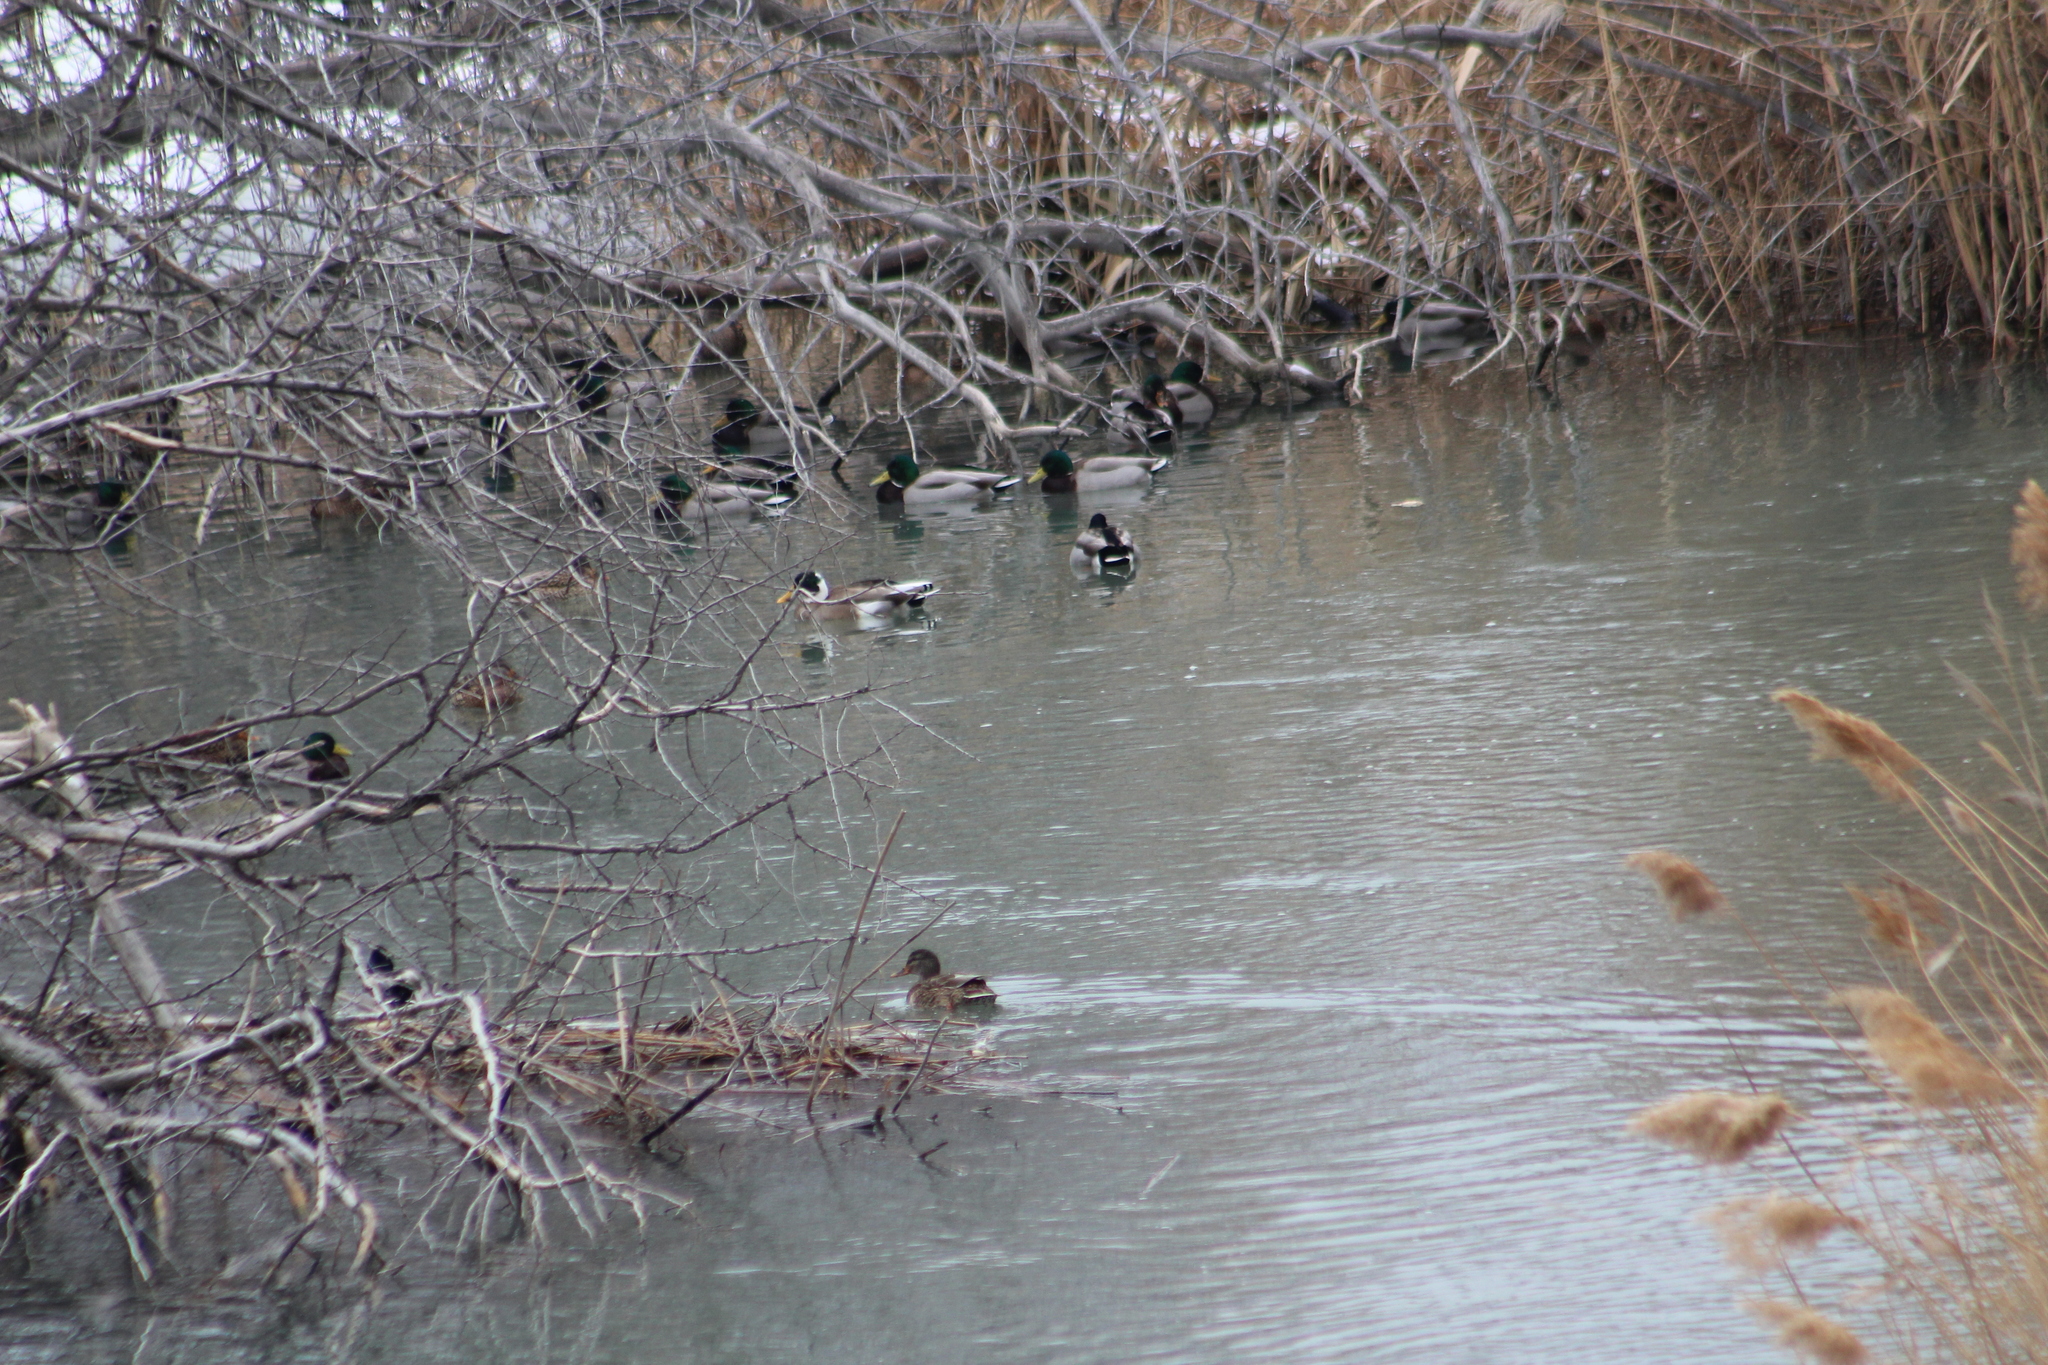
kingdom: Animalia
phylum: Chordata
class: Aves
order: Anseriformes
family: Anatidae
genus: Anas
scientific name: Anas platyrhynchos
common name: Mallard
